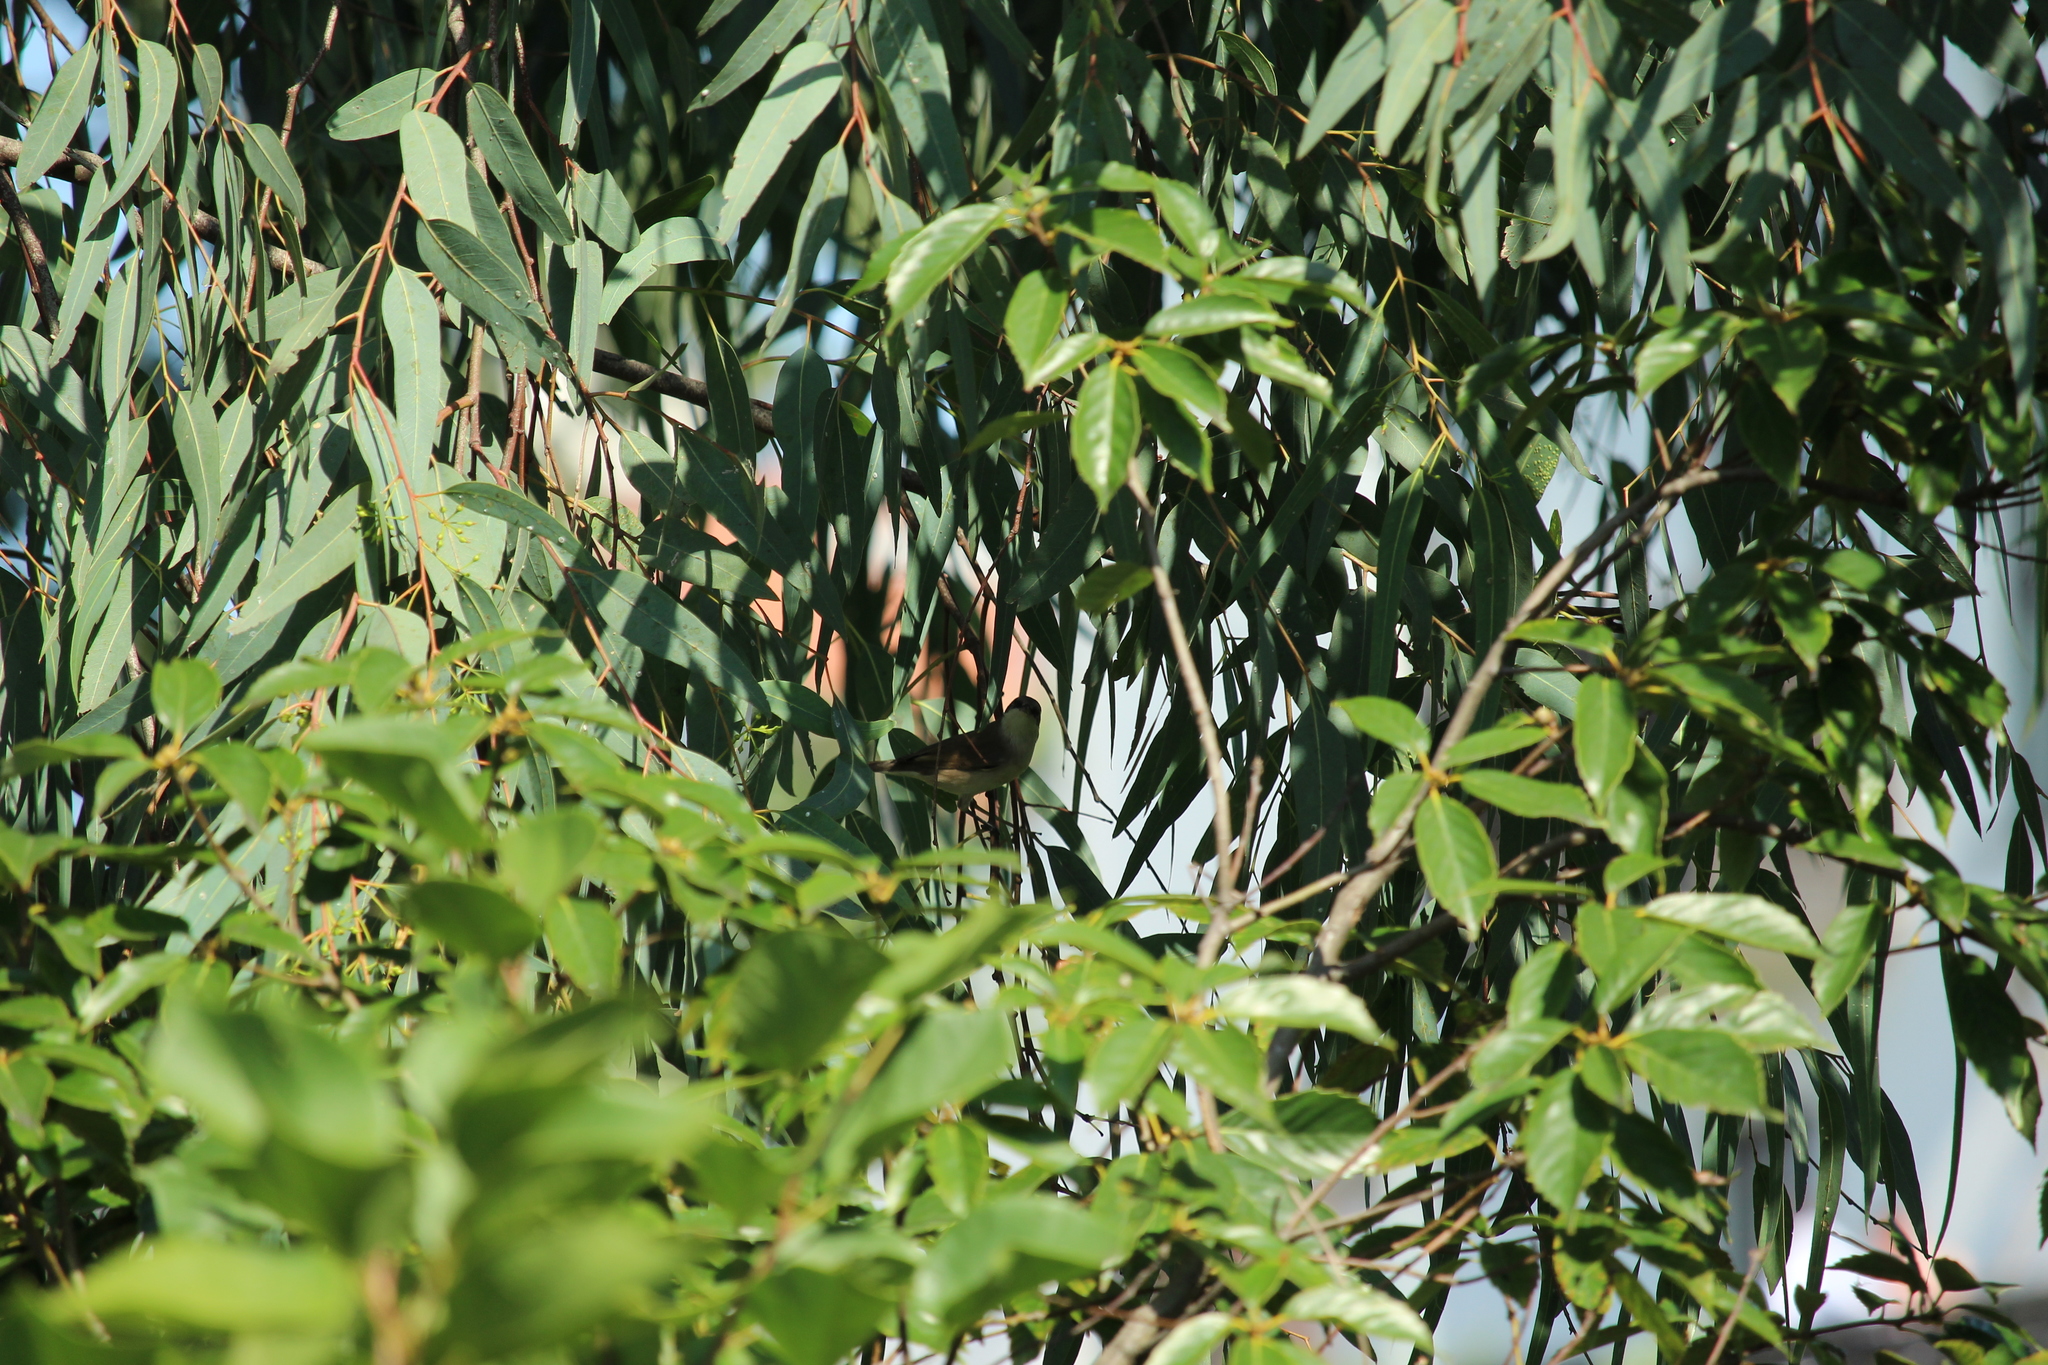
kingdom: Animalia
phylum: Chordata
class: Aves
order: Passeriformes
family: Sylviidae
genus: Sylvia
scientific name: Sylvia curruca
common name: Lesser whitethroat
